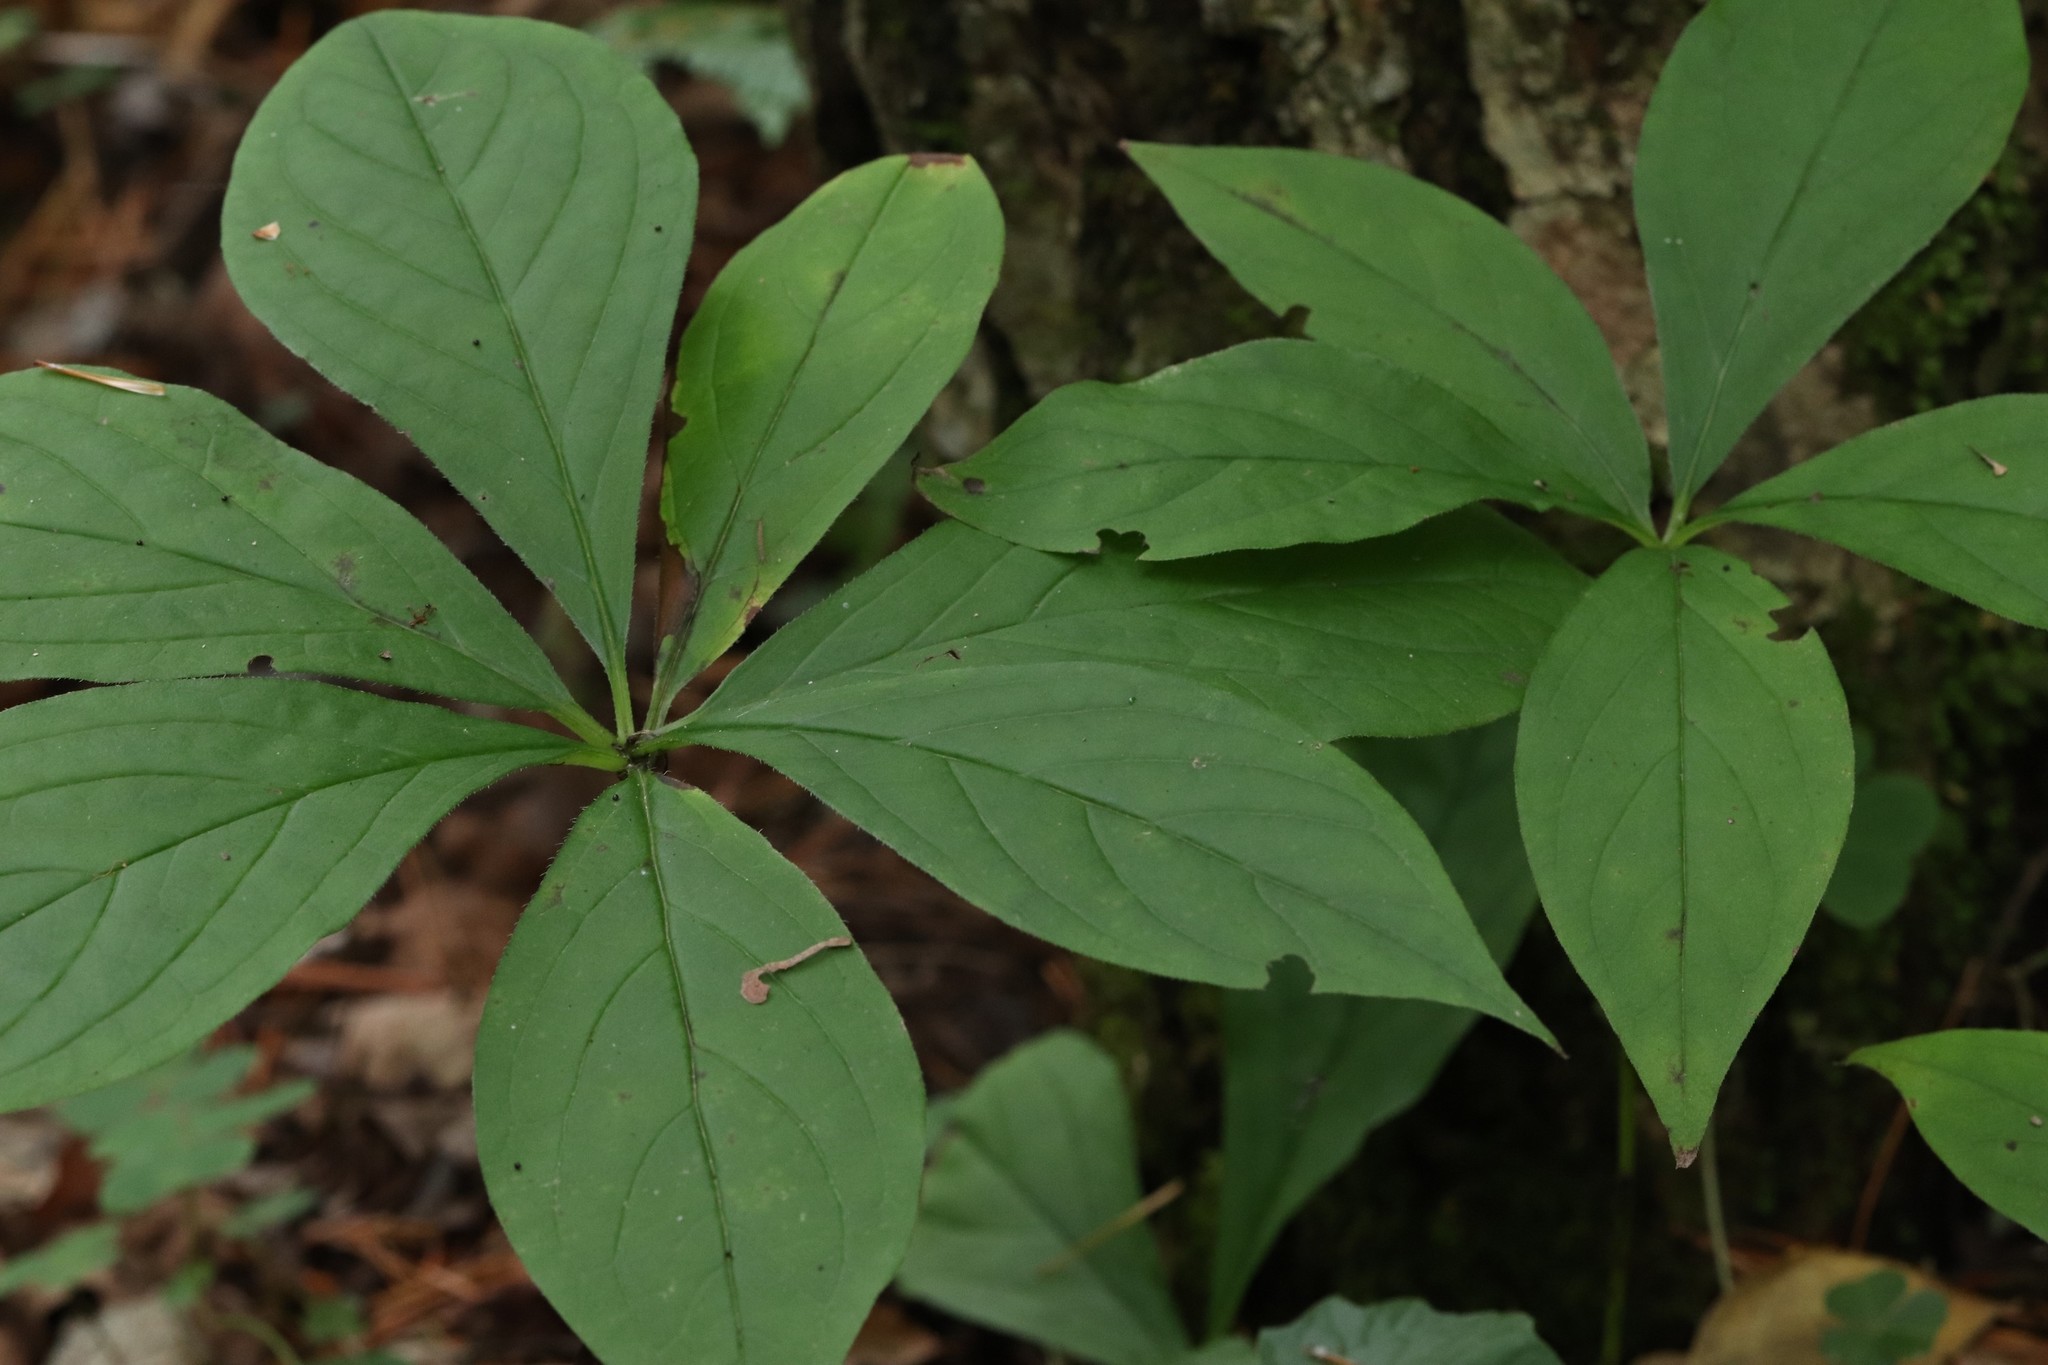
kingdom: Plantae
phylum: Tracheophyta
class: Magnoliopsida
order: Boraginales
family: Boraginaceae
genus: Brachybotrys
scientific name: Brachybotrys paridiformis
